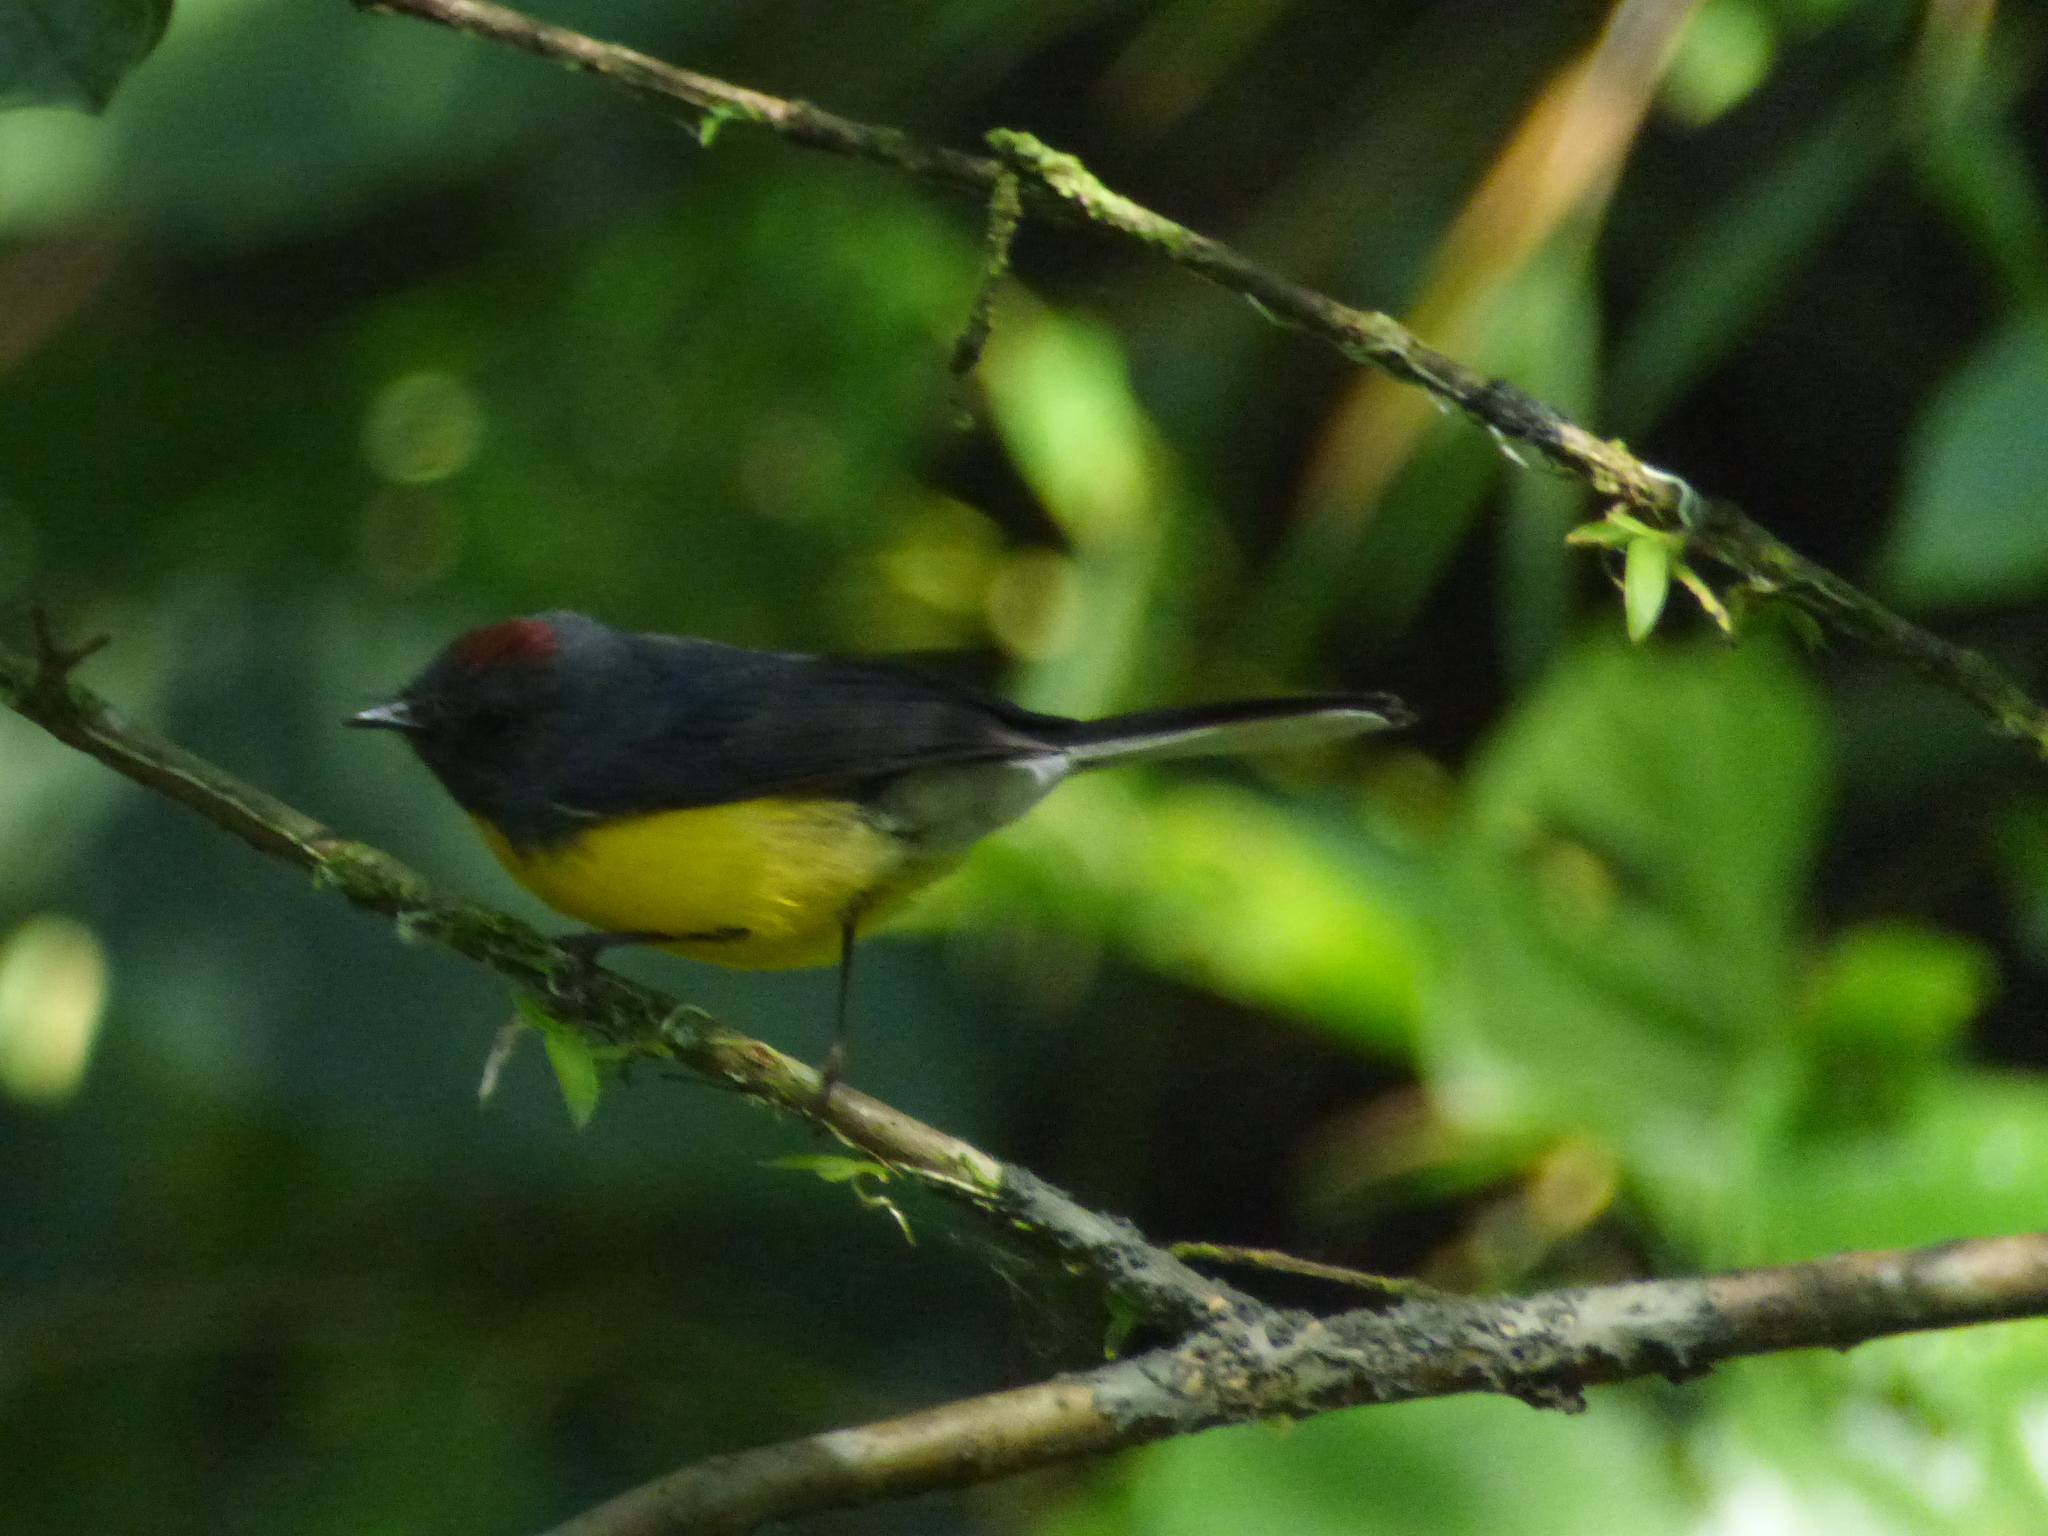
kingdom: Animalia
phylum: Chordata
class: Aves
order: Passeriformes
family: Parulidae
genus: Myioborus
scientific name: Myioborus miniatus
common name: Slate-throated redstart
